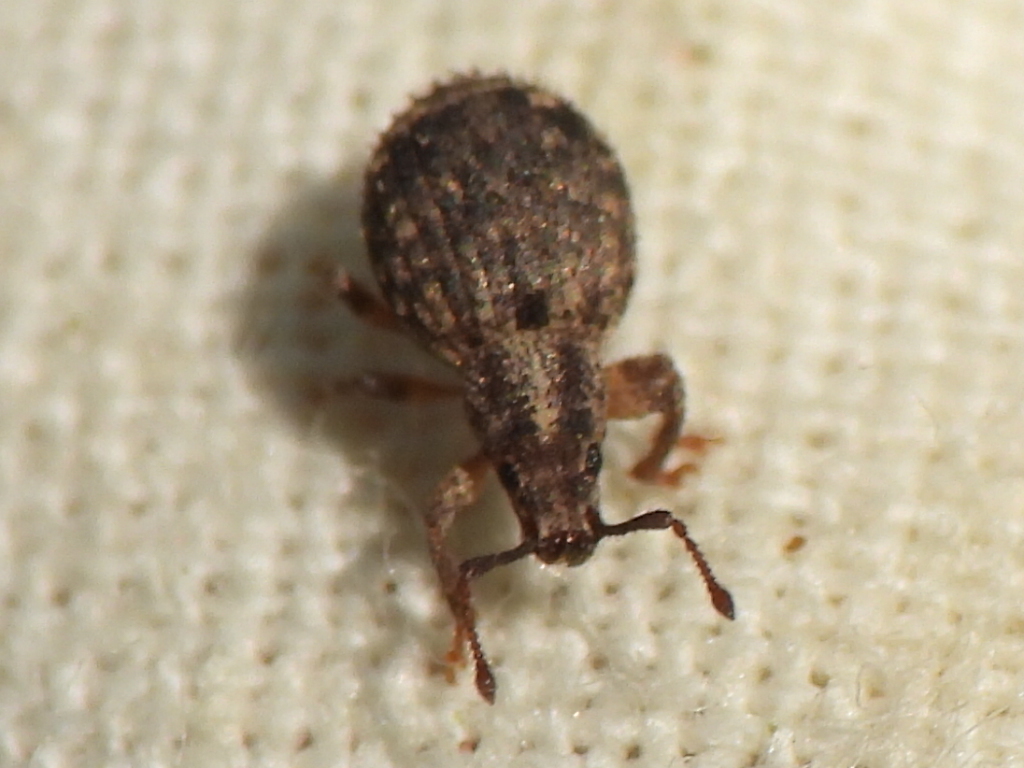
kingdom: Animalia
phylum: Arthropoda
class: Insecta
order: Coleoptera
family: Curculionidae
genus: Myosides
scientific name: Myosides seriehispidus
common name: Broadnosed weevil
